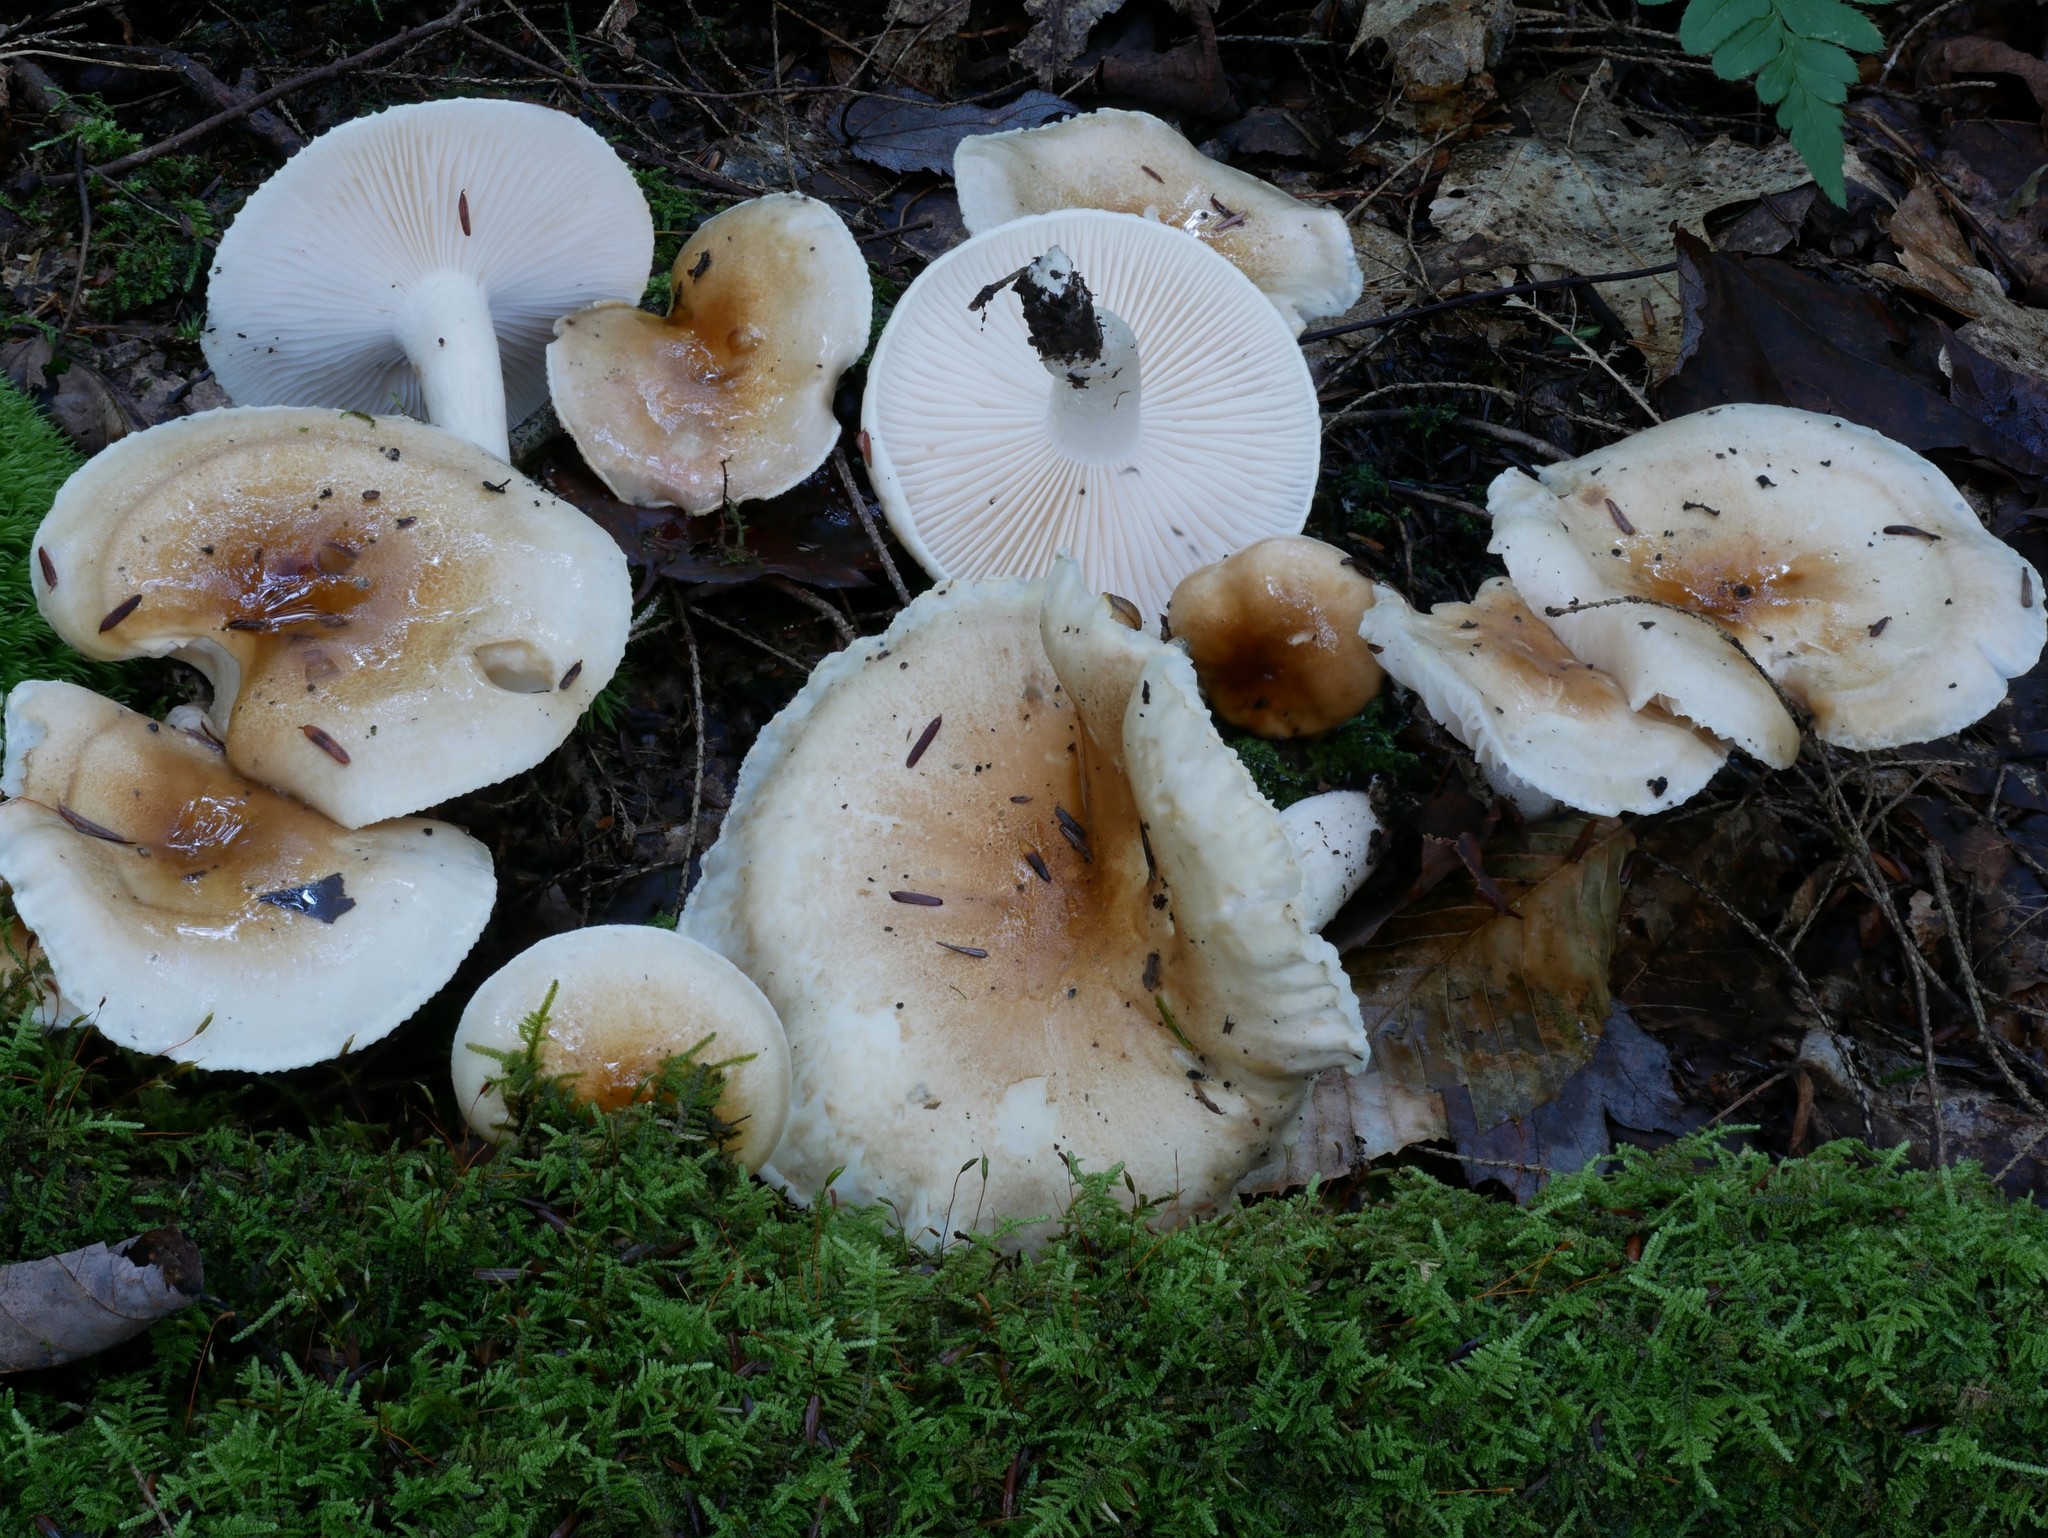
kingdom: Fungi
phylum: Basidiomycota
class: Agaricomycetes
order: Agaricales
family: Hygrophoraceae
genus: Hygrophorus
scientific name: Hygrophorus tennesseensis
